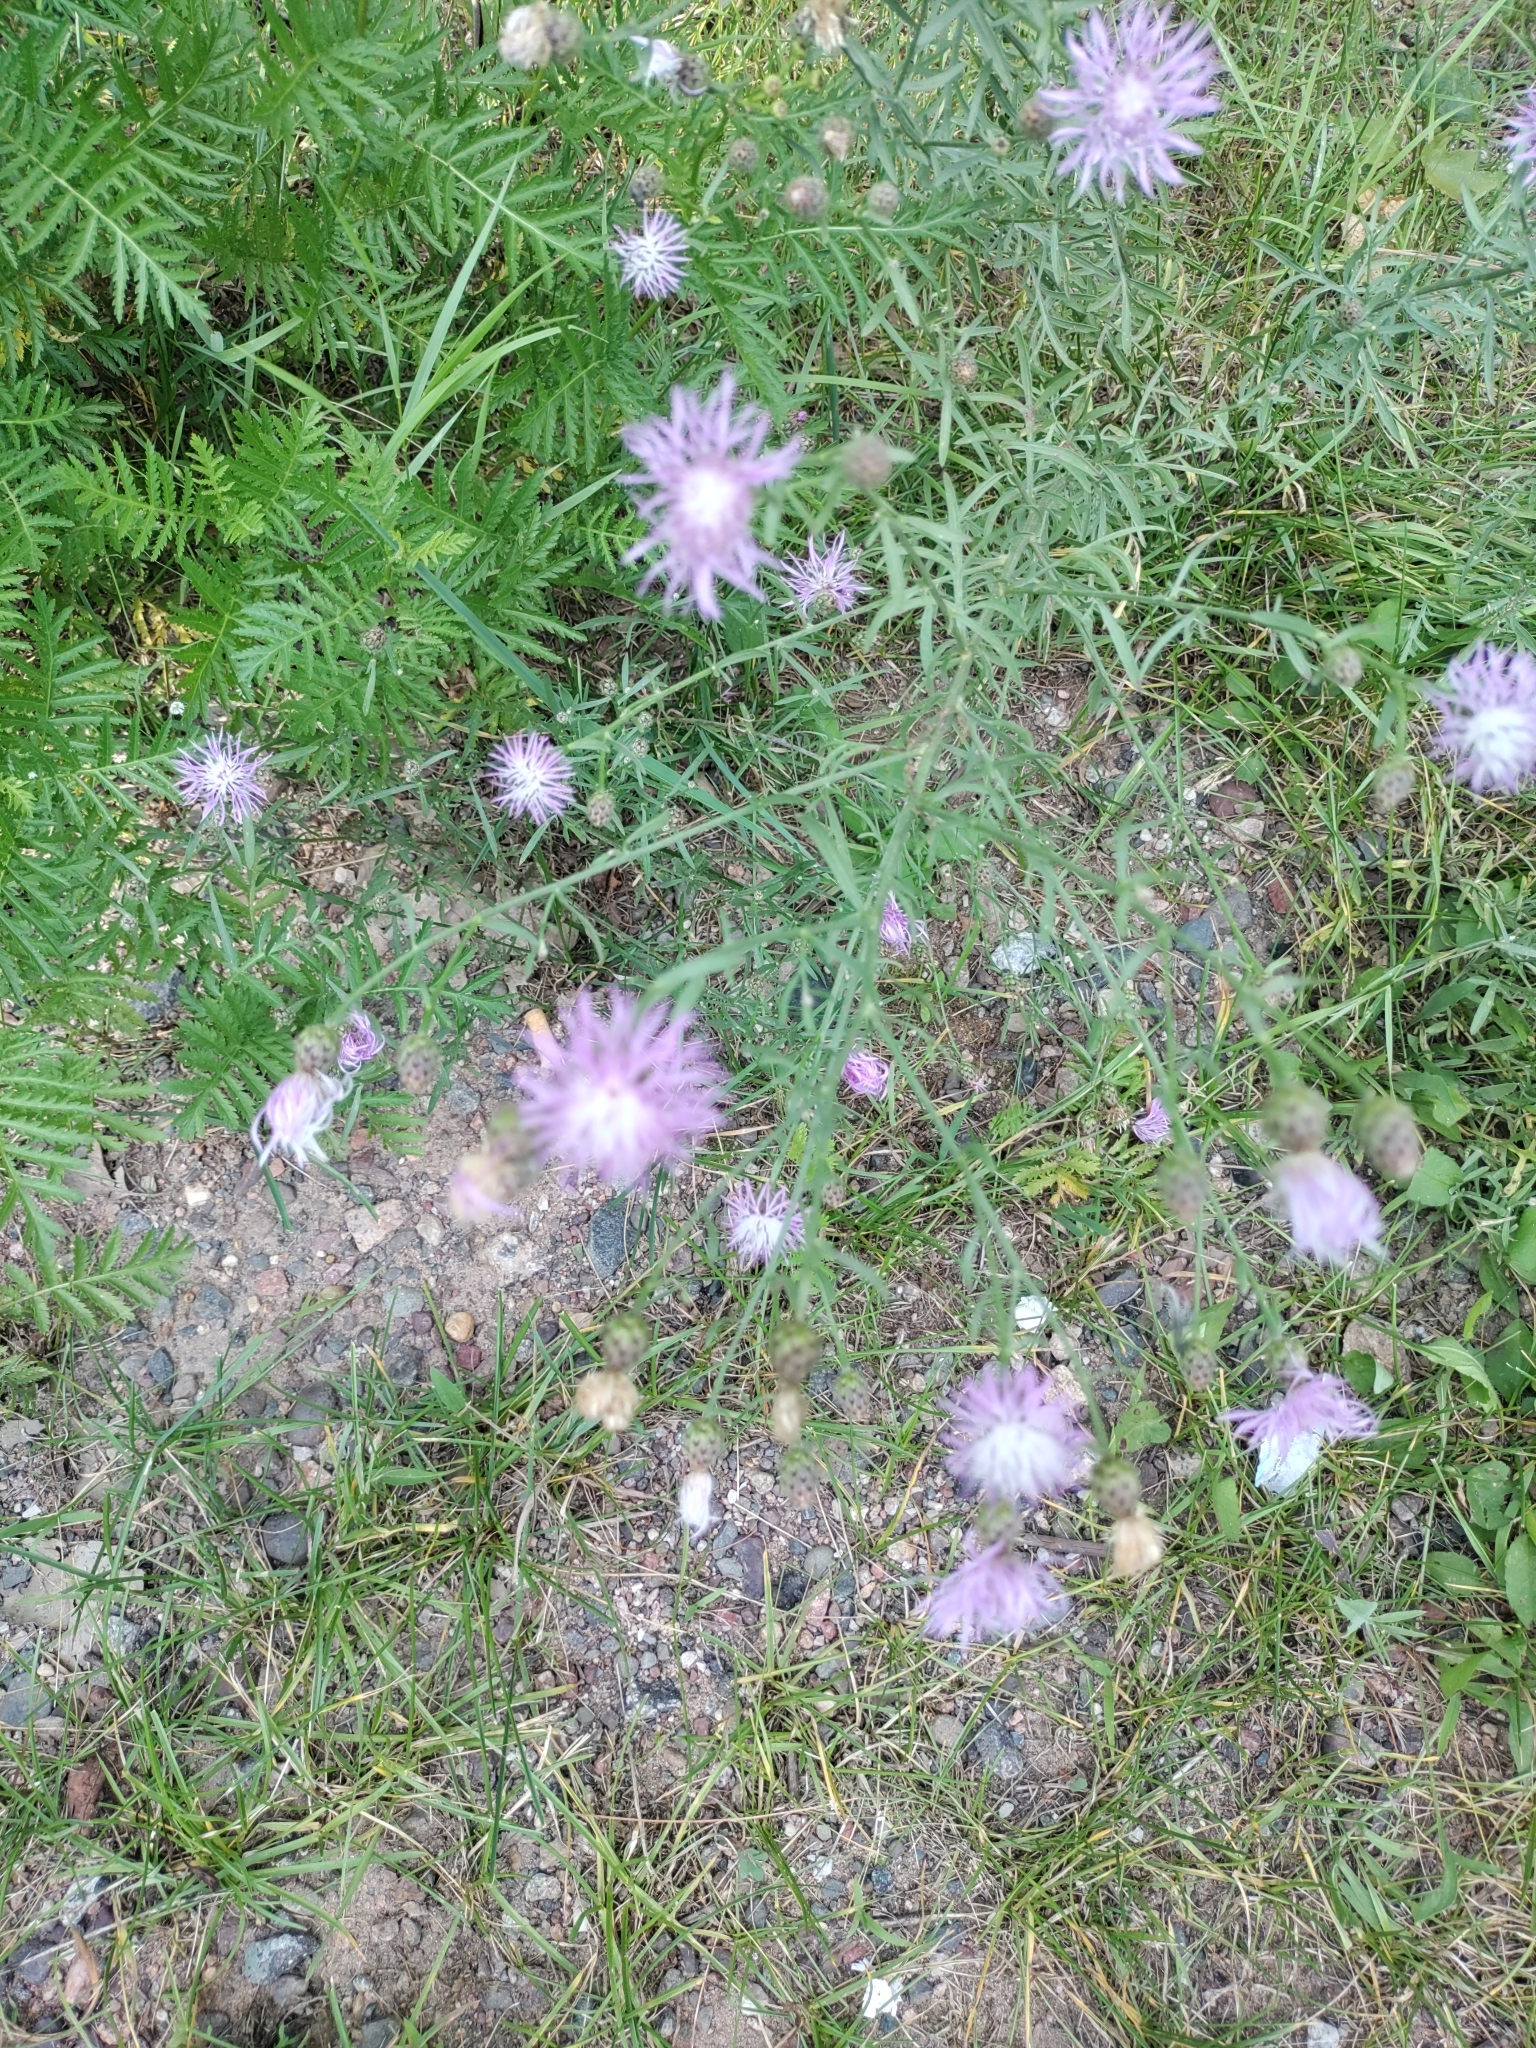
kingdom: Plantae
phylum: Tracheophyta
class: Magnoliopsida
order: Asterales
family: Asteraceae
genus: Centaurea
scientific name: Centaurea stoebe
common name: Spotted knapweed
